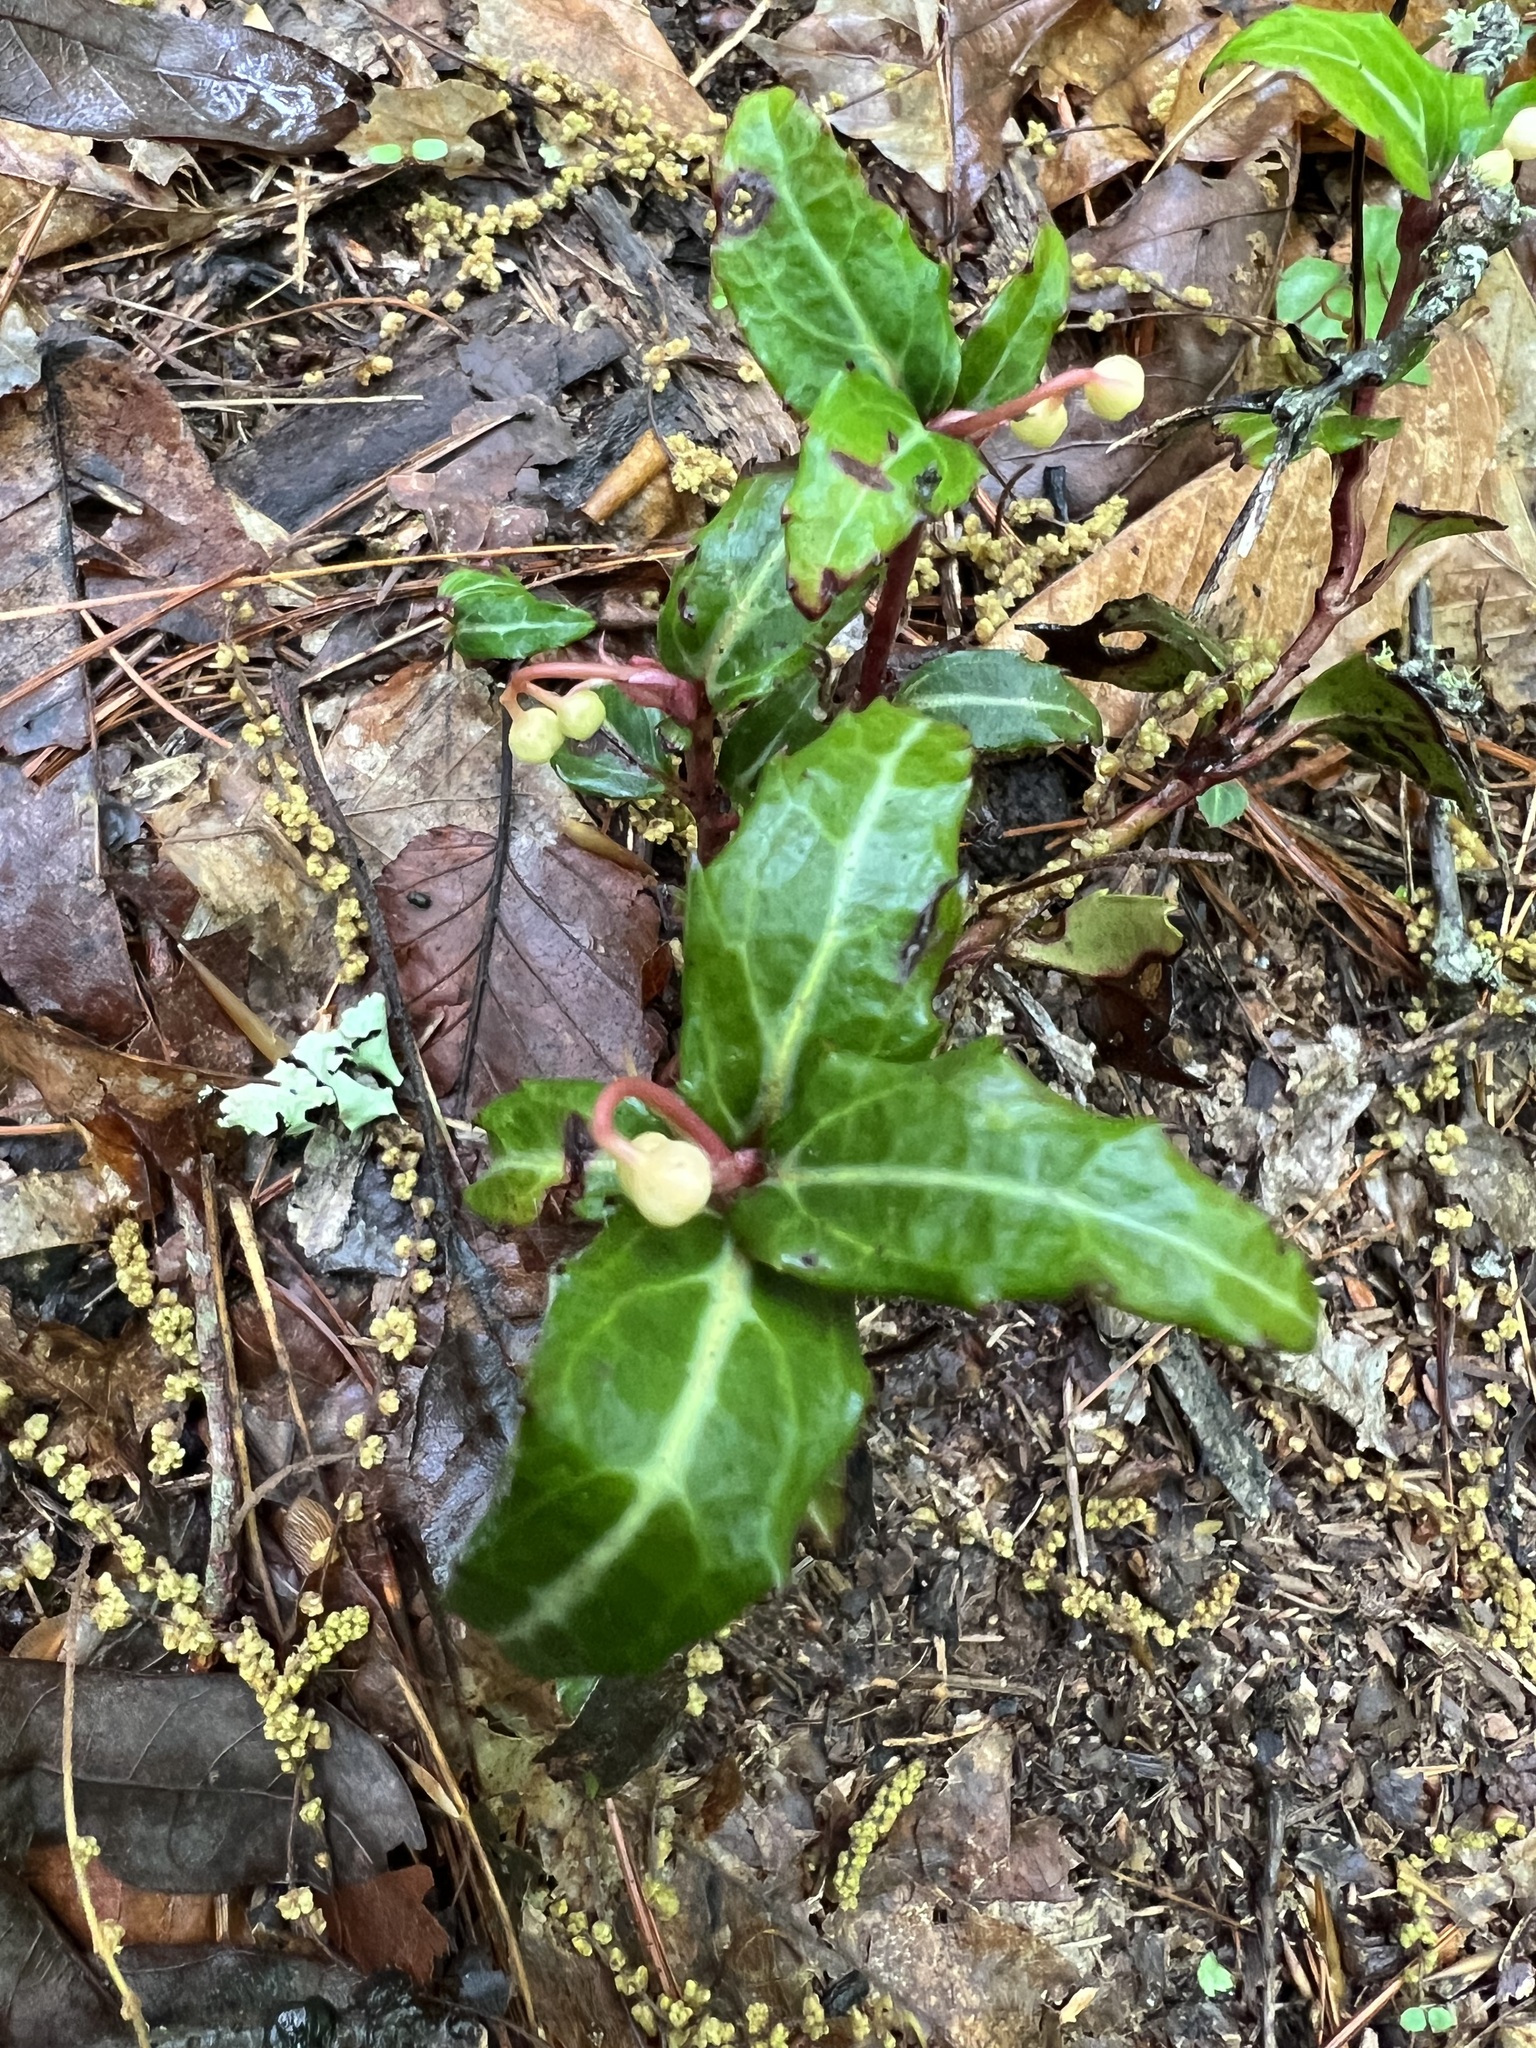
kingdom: Plantae
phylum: Tracheophyta
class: Magnoliopsida
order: Ericales
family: Ericaceae
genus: Chimaphila
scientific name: Chimaphila maculata
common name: Spotted pipsissewa
